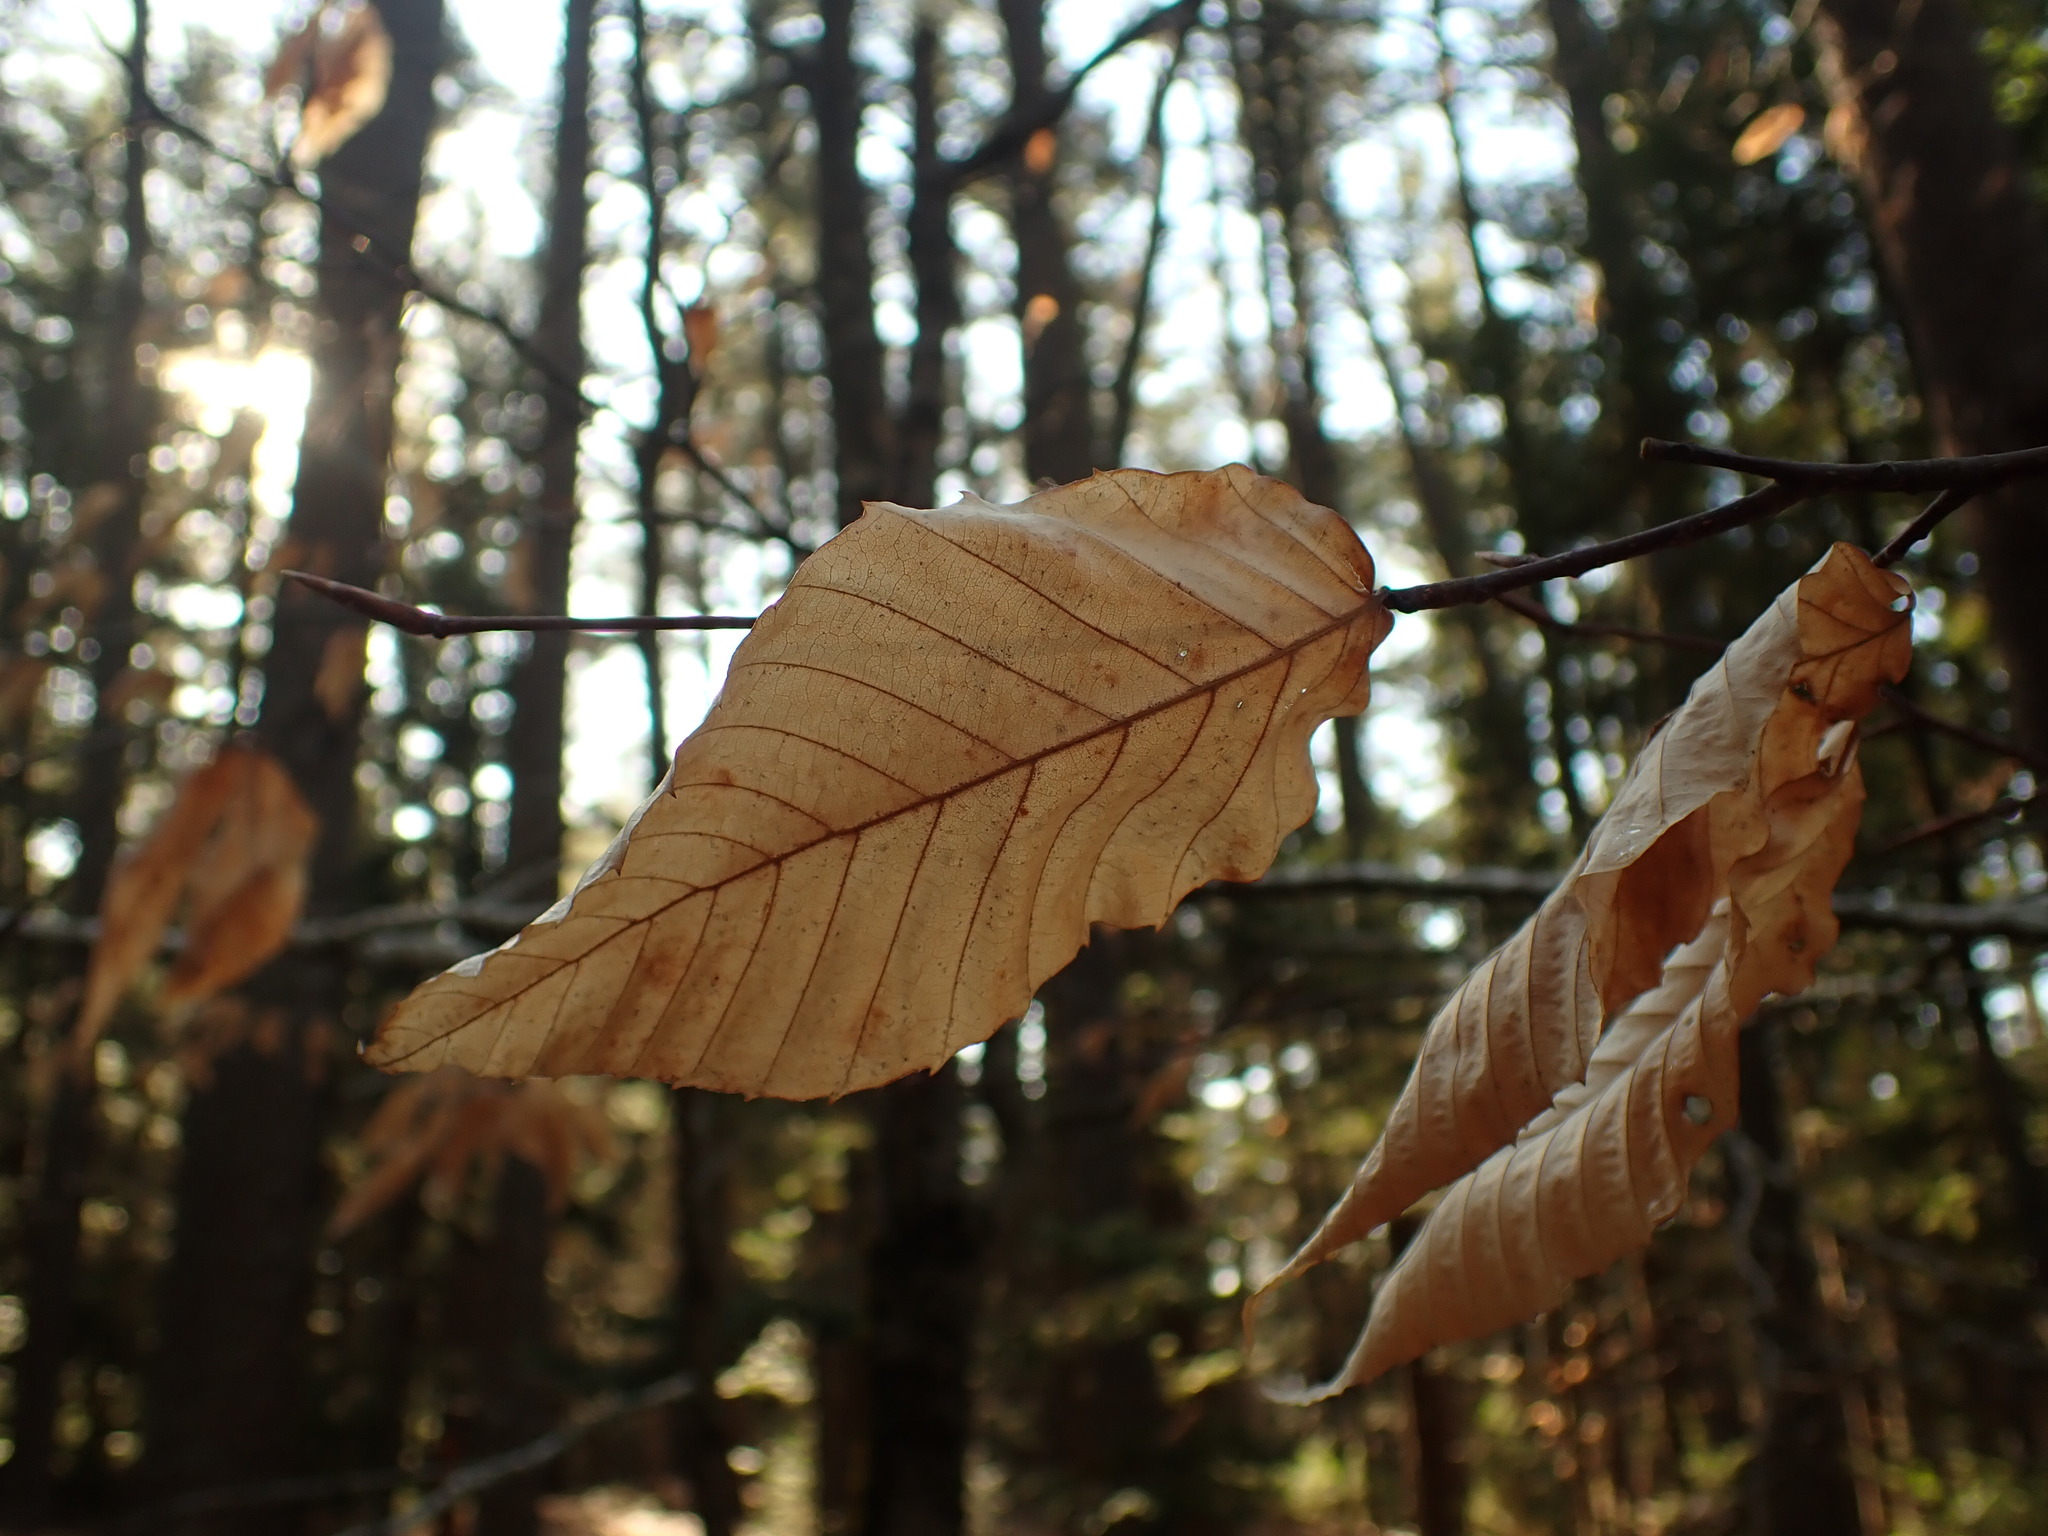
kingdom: Plantae
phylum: Tracheophyta
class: Magnoliopsida
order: Fagales
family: Fagaceae
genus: Fagus
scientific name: Fagus grandifolia
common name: American beech
